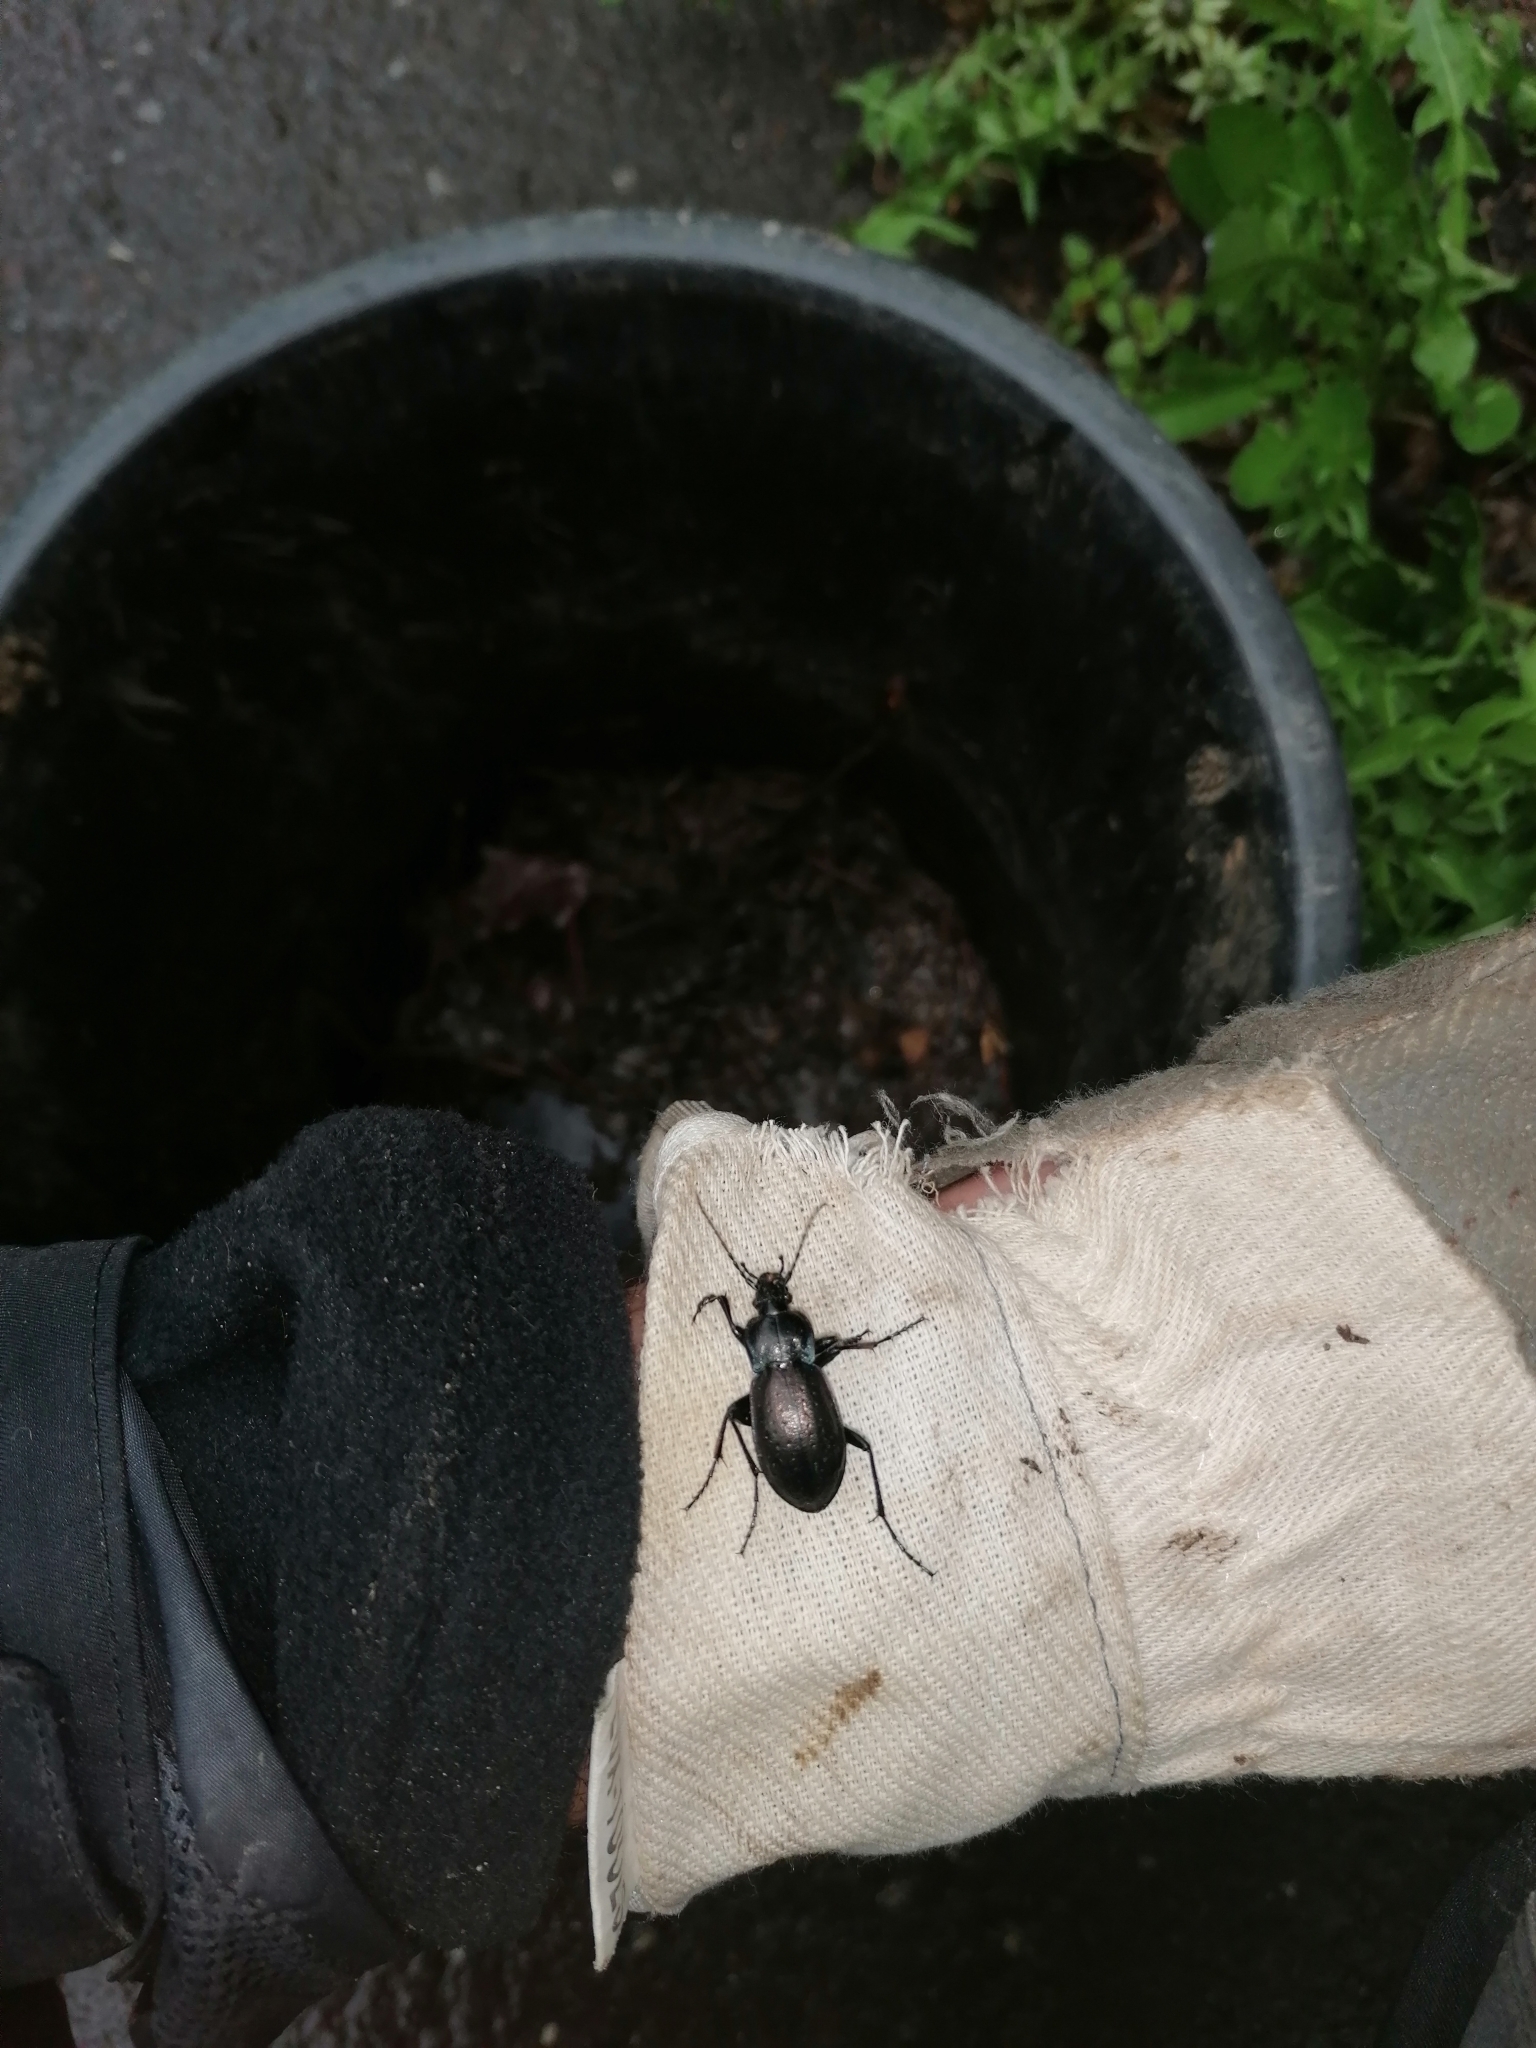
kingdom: Animalia
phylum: Arthropoda
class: Insecta
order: Coleoptera
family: Carabidae
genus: Carabus
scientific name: Carabus nemoralis
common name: European ground beetle
